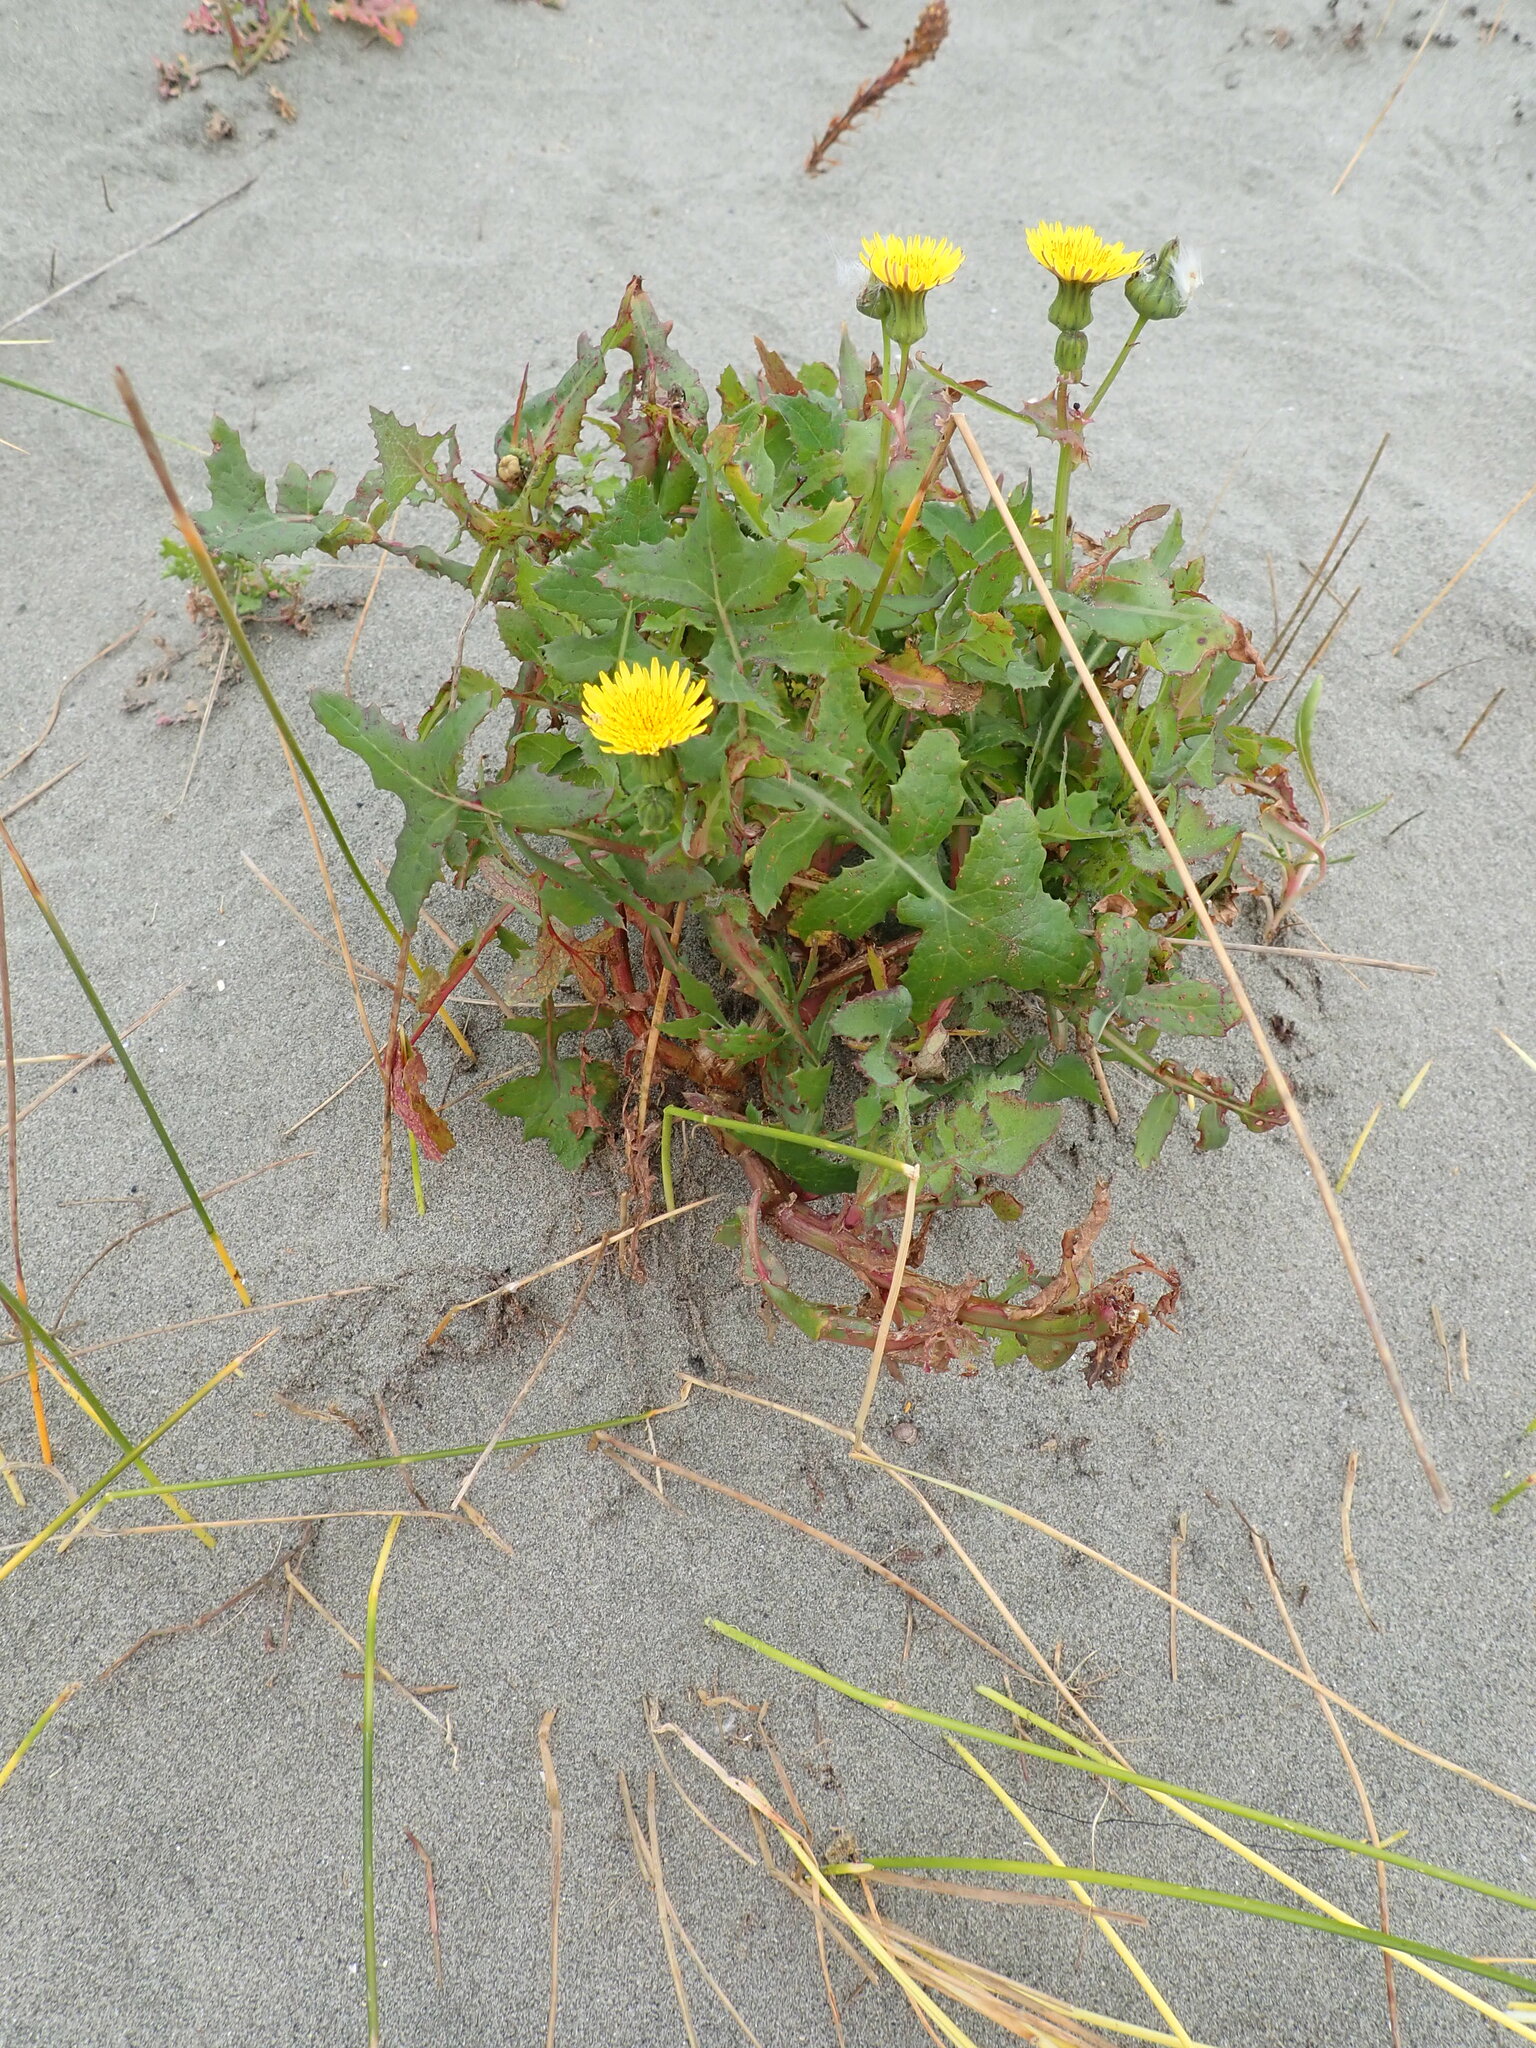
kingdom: Plantae
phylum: Tracheophyta
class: Magnoliopsida
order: Asterales
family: Asteraceae
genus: Sonchus
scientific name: Sonchus oleraceus
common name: Common sowthistle
